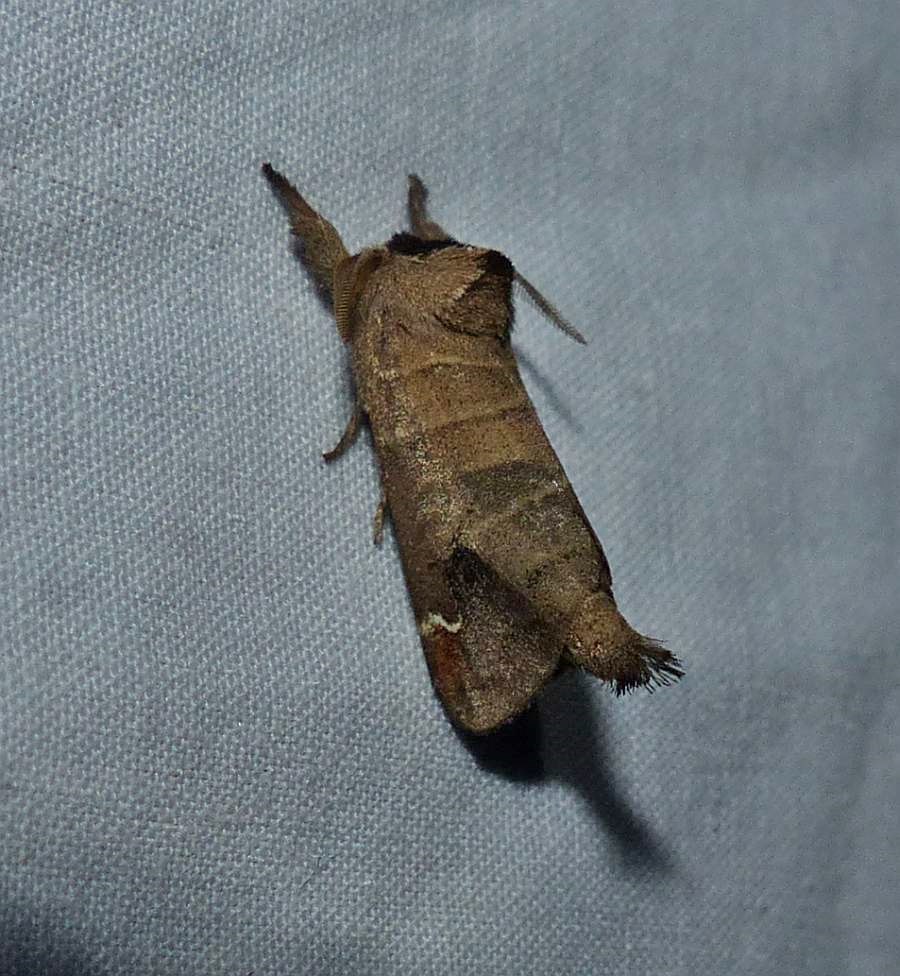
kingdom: Animalia
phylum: Arthropoda
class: Insecta
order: Lepidoptera
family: Notodontidae
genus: Clostera
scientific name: Clostera albosigma
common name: Sigmoid prominent
